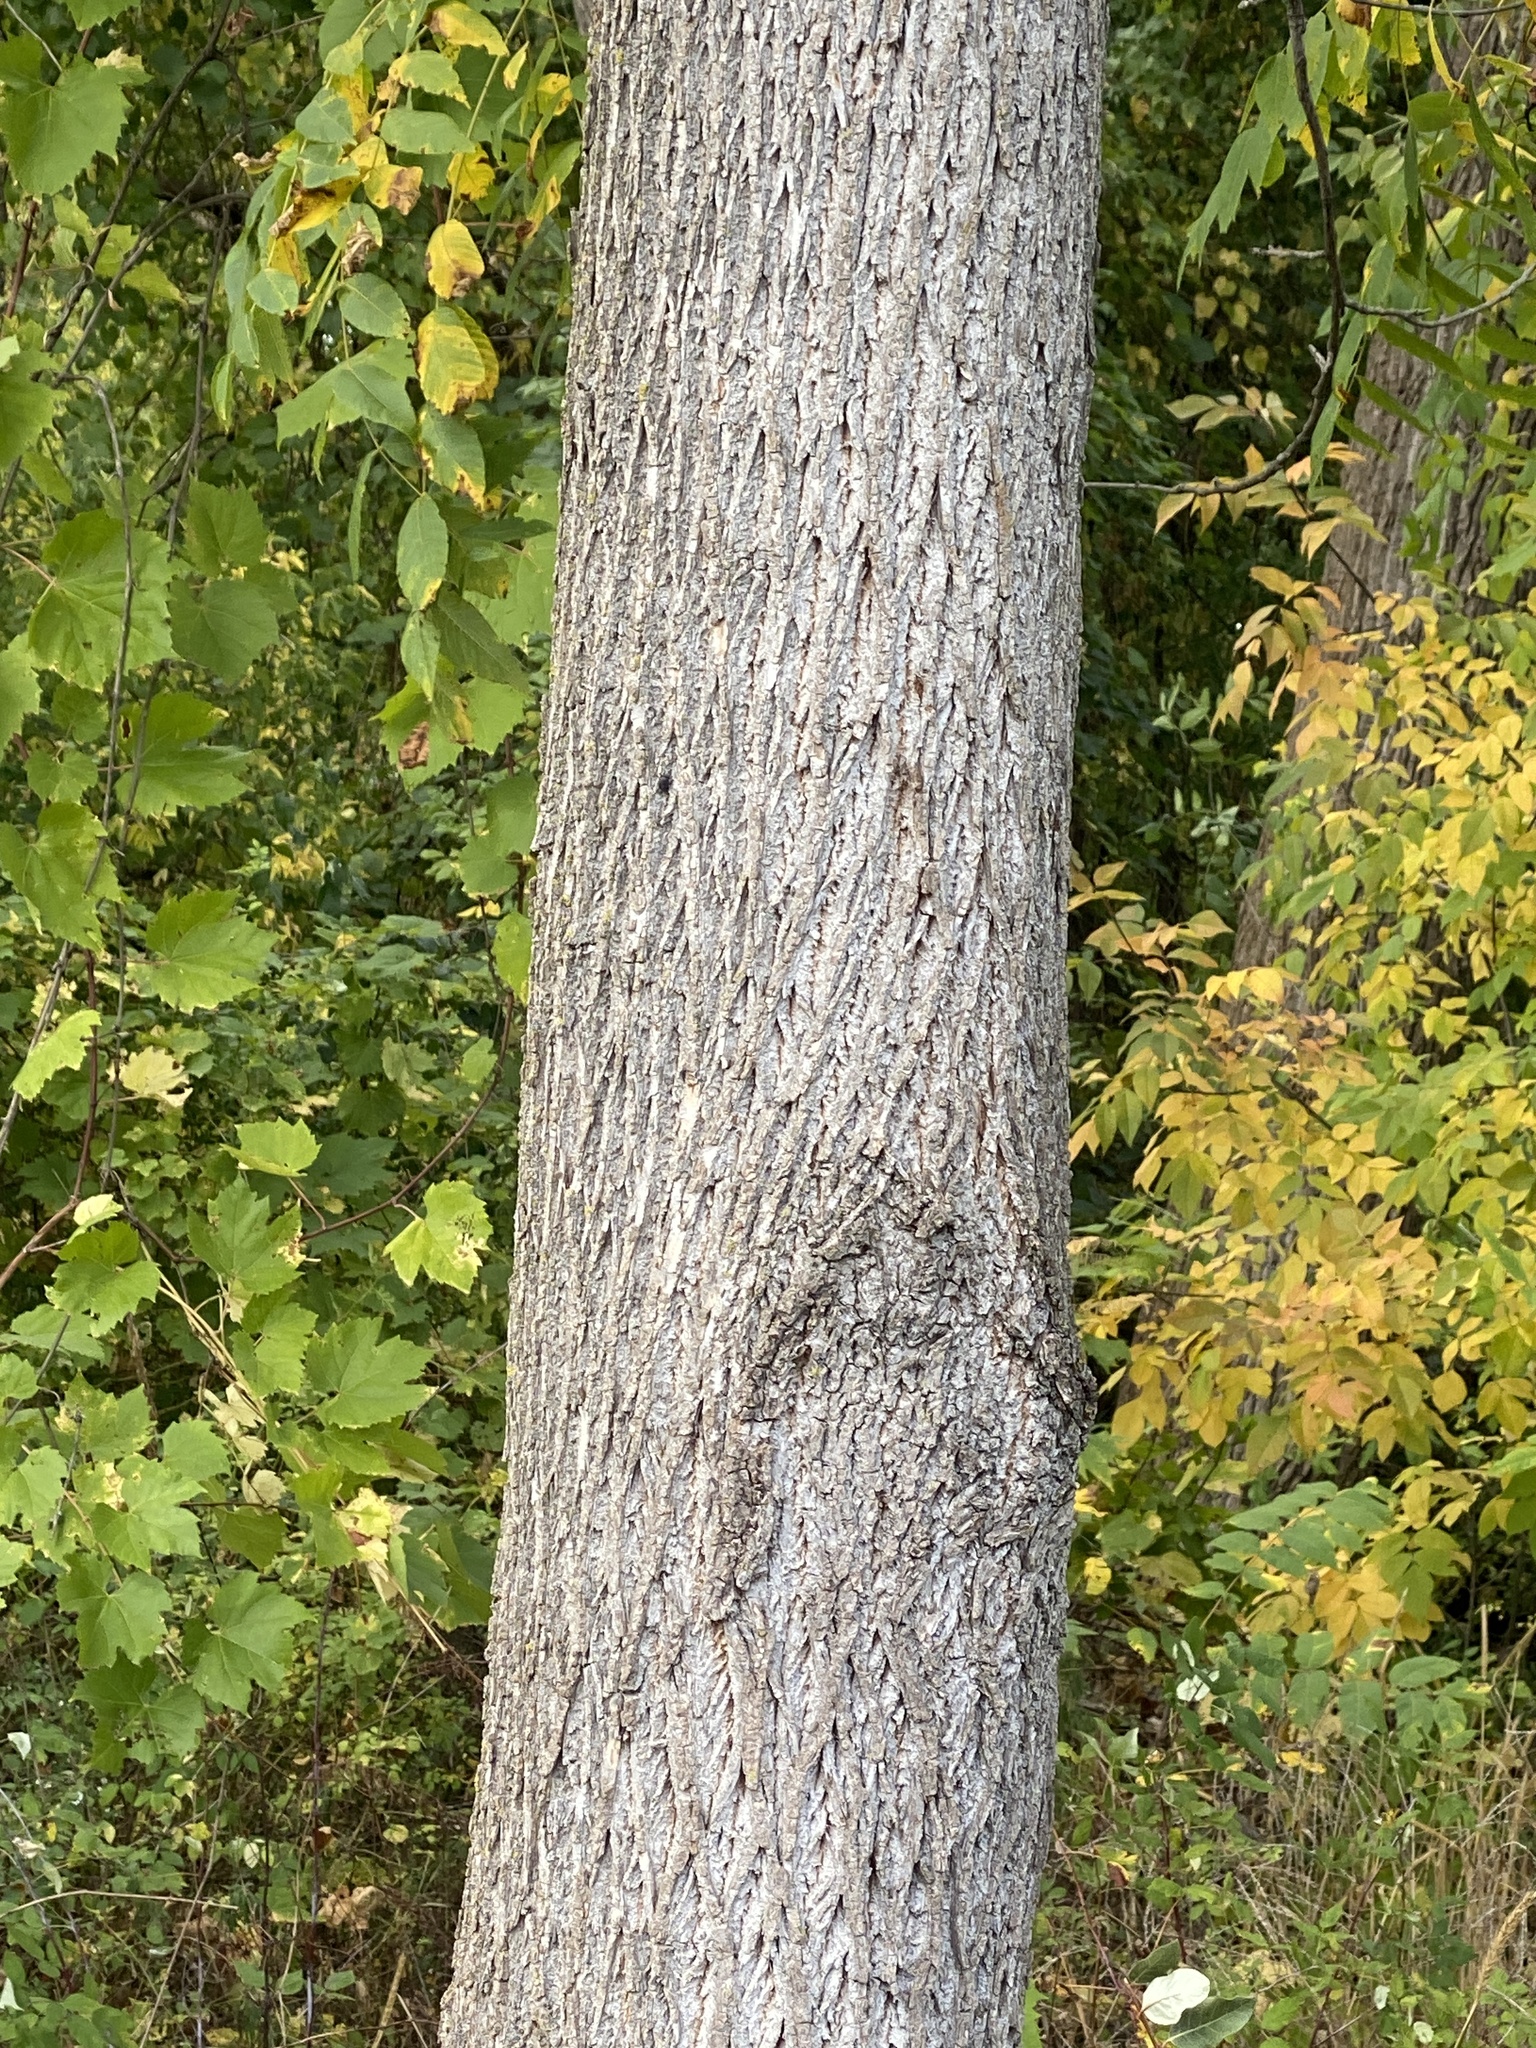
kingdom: Plantae
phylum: Tracheophyta
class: Magnoliopsida
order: Fagales
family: Juglandaceae
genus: Juglans
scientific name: Juglans nigra
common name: Black walnut
